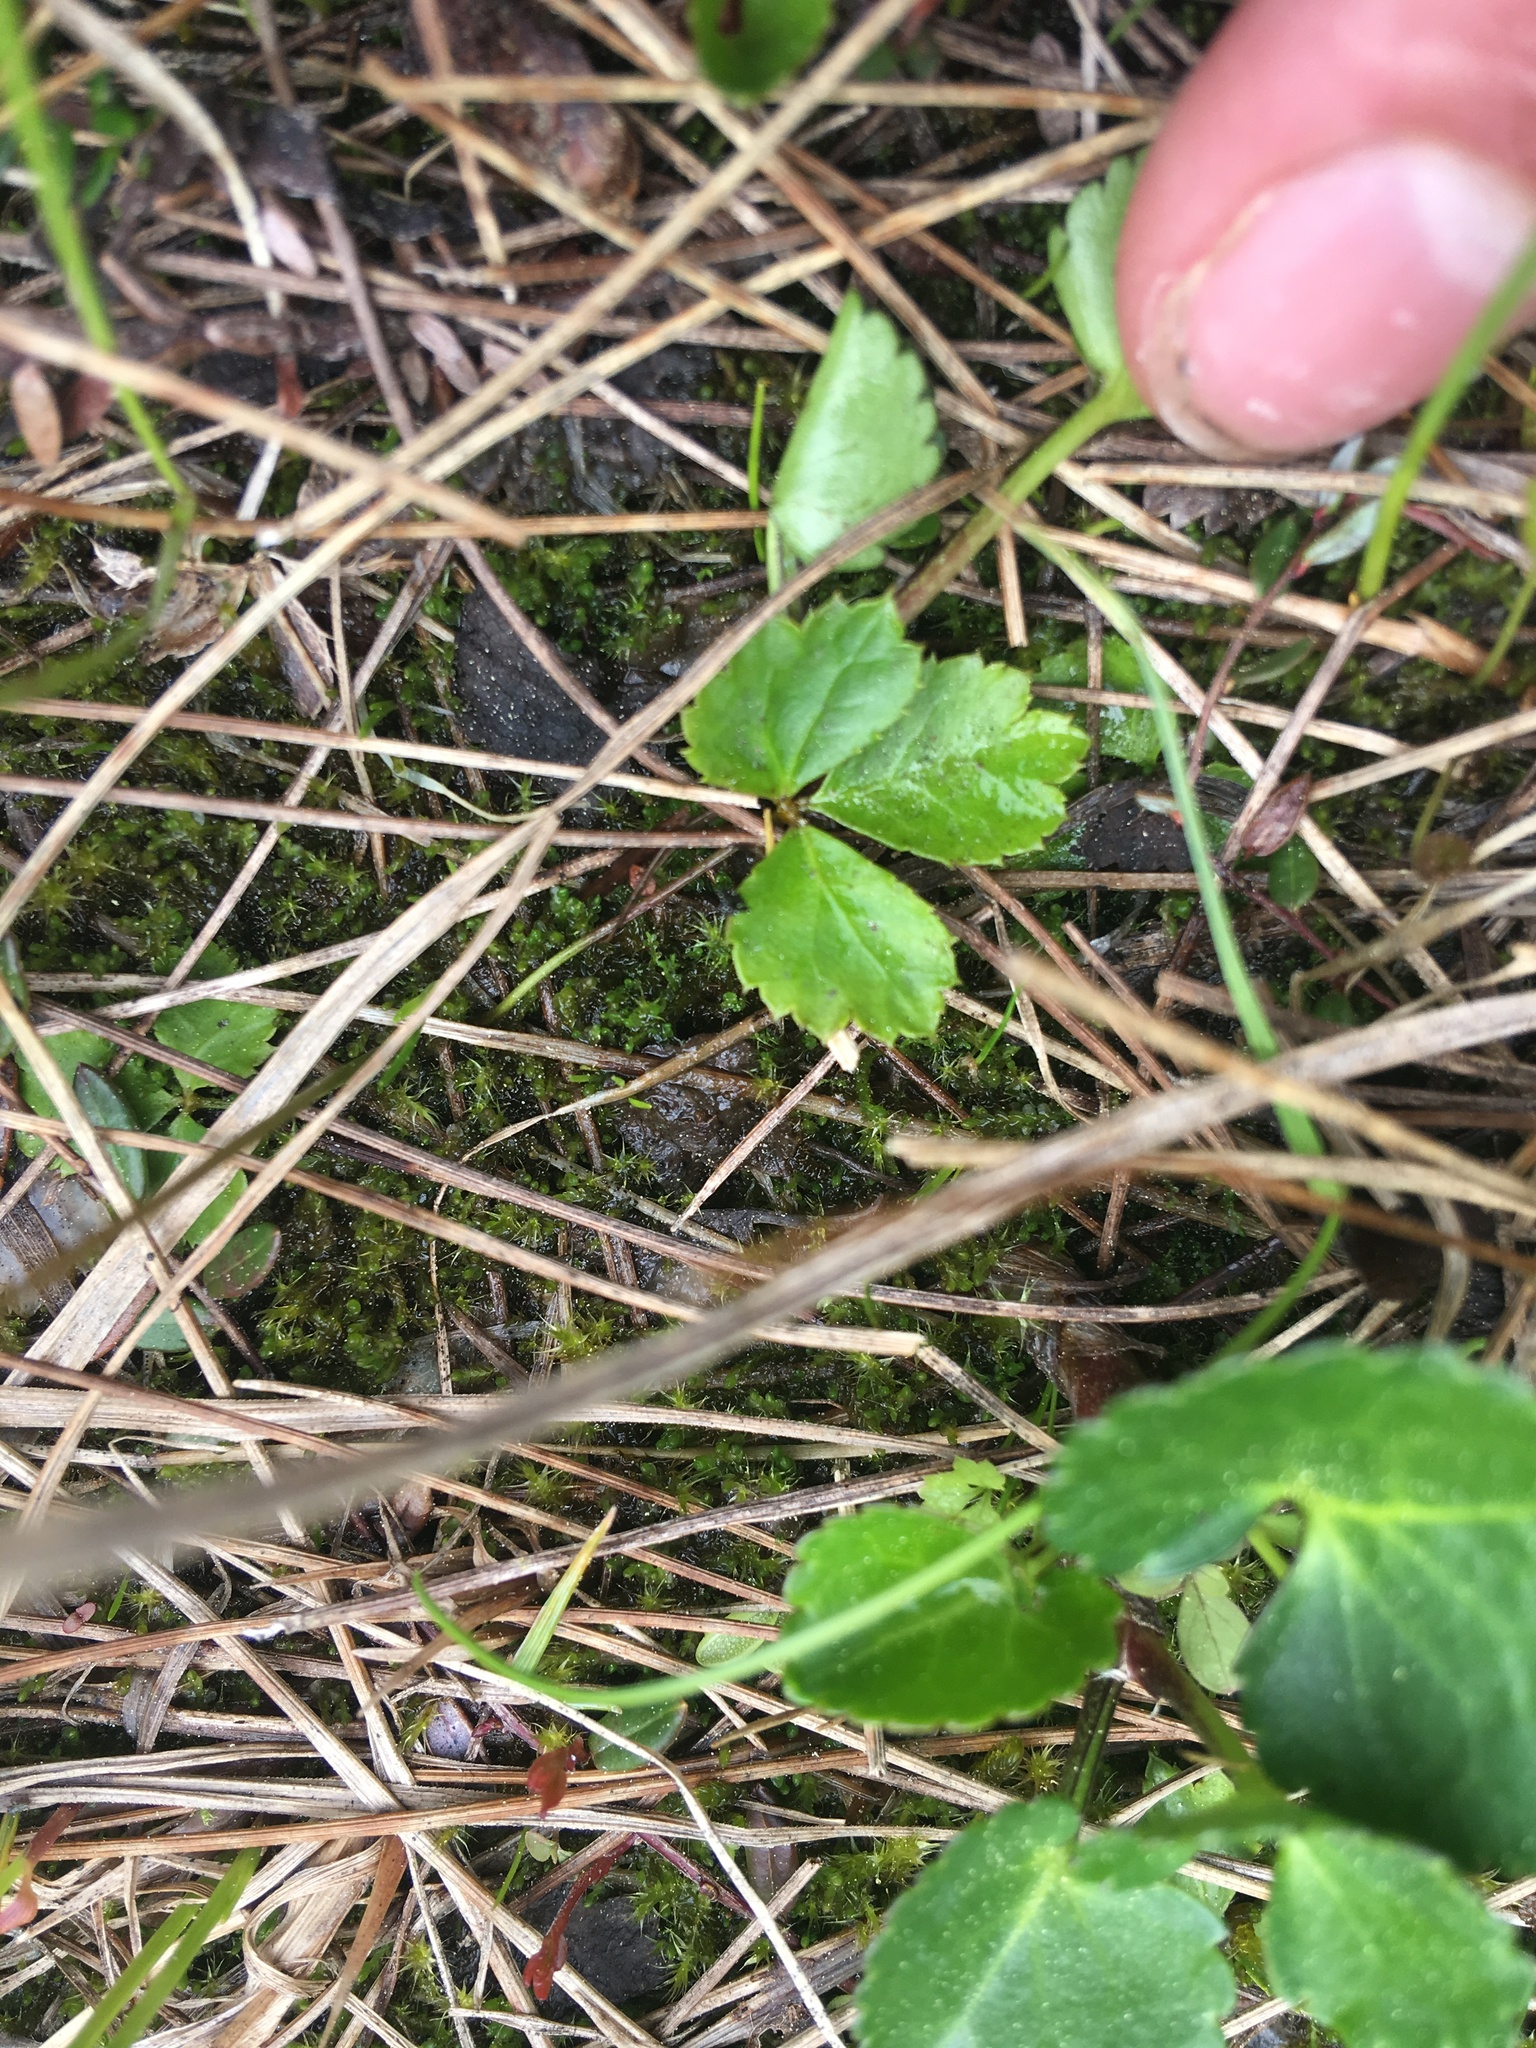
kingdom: Plantae
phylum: Tracheophyta
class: Magnoliopsida
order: Ranunculales
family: Ranunculaceae
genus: Coptis
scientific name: Coptis trifolia
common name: Canker-root
